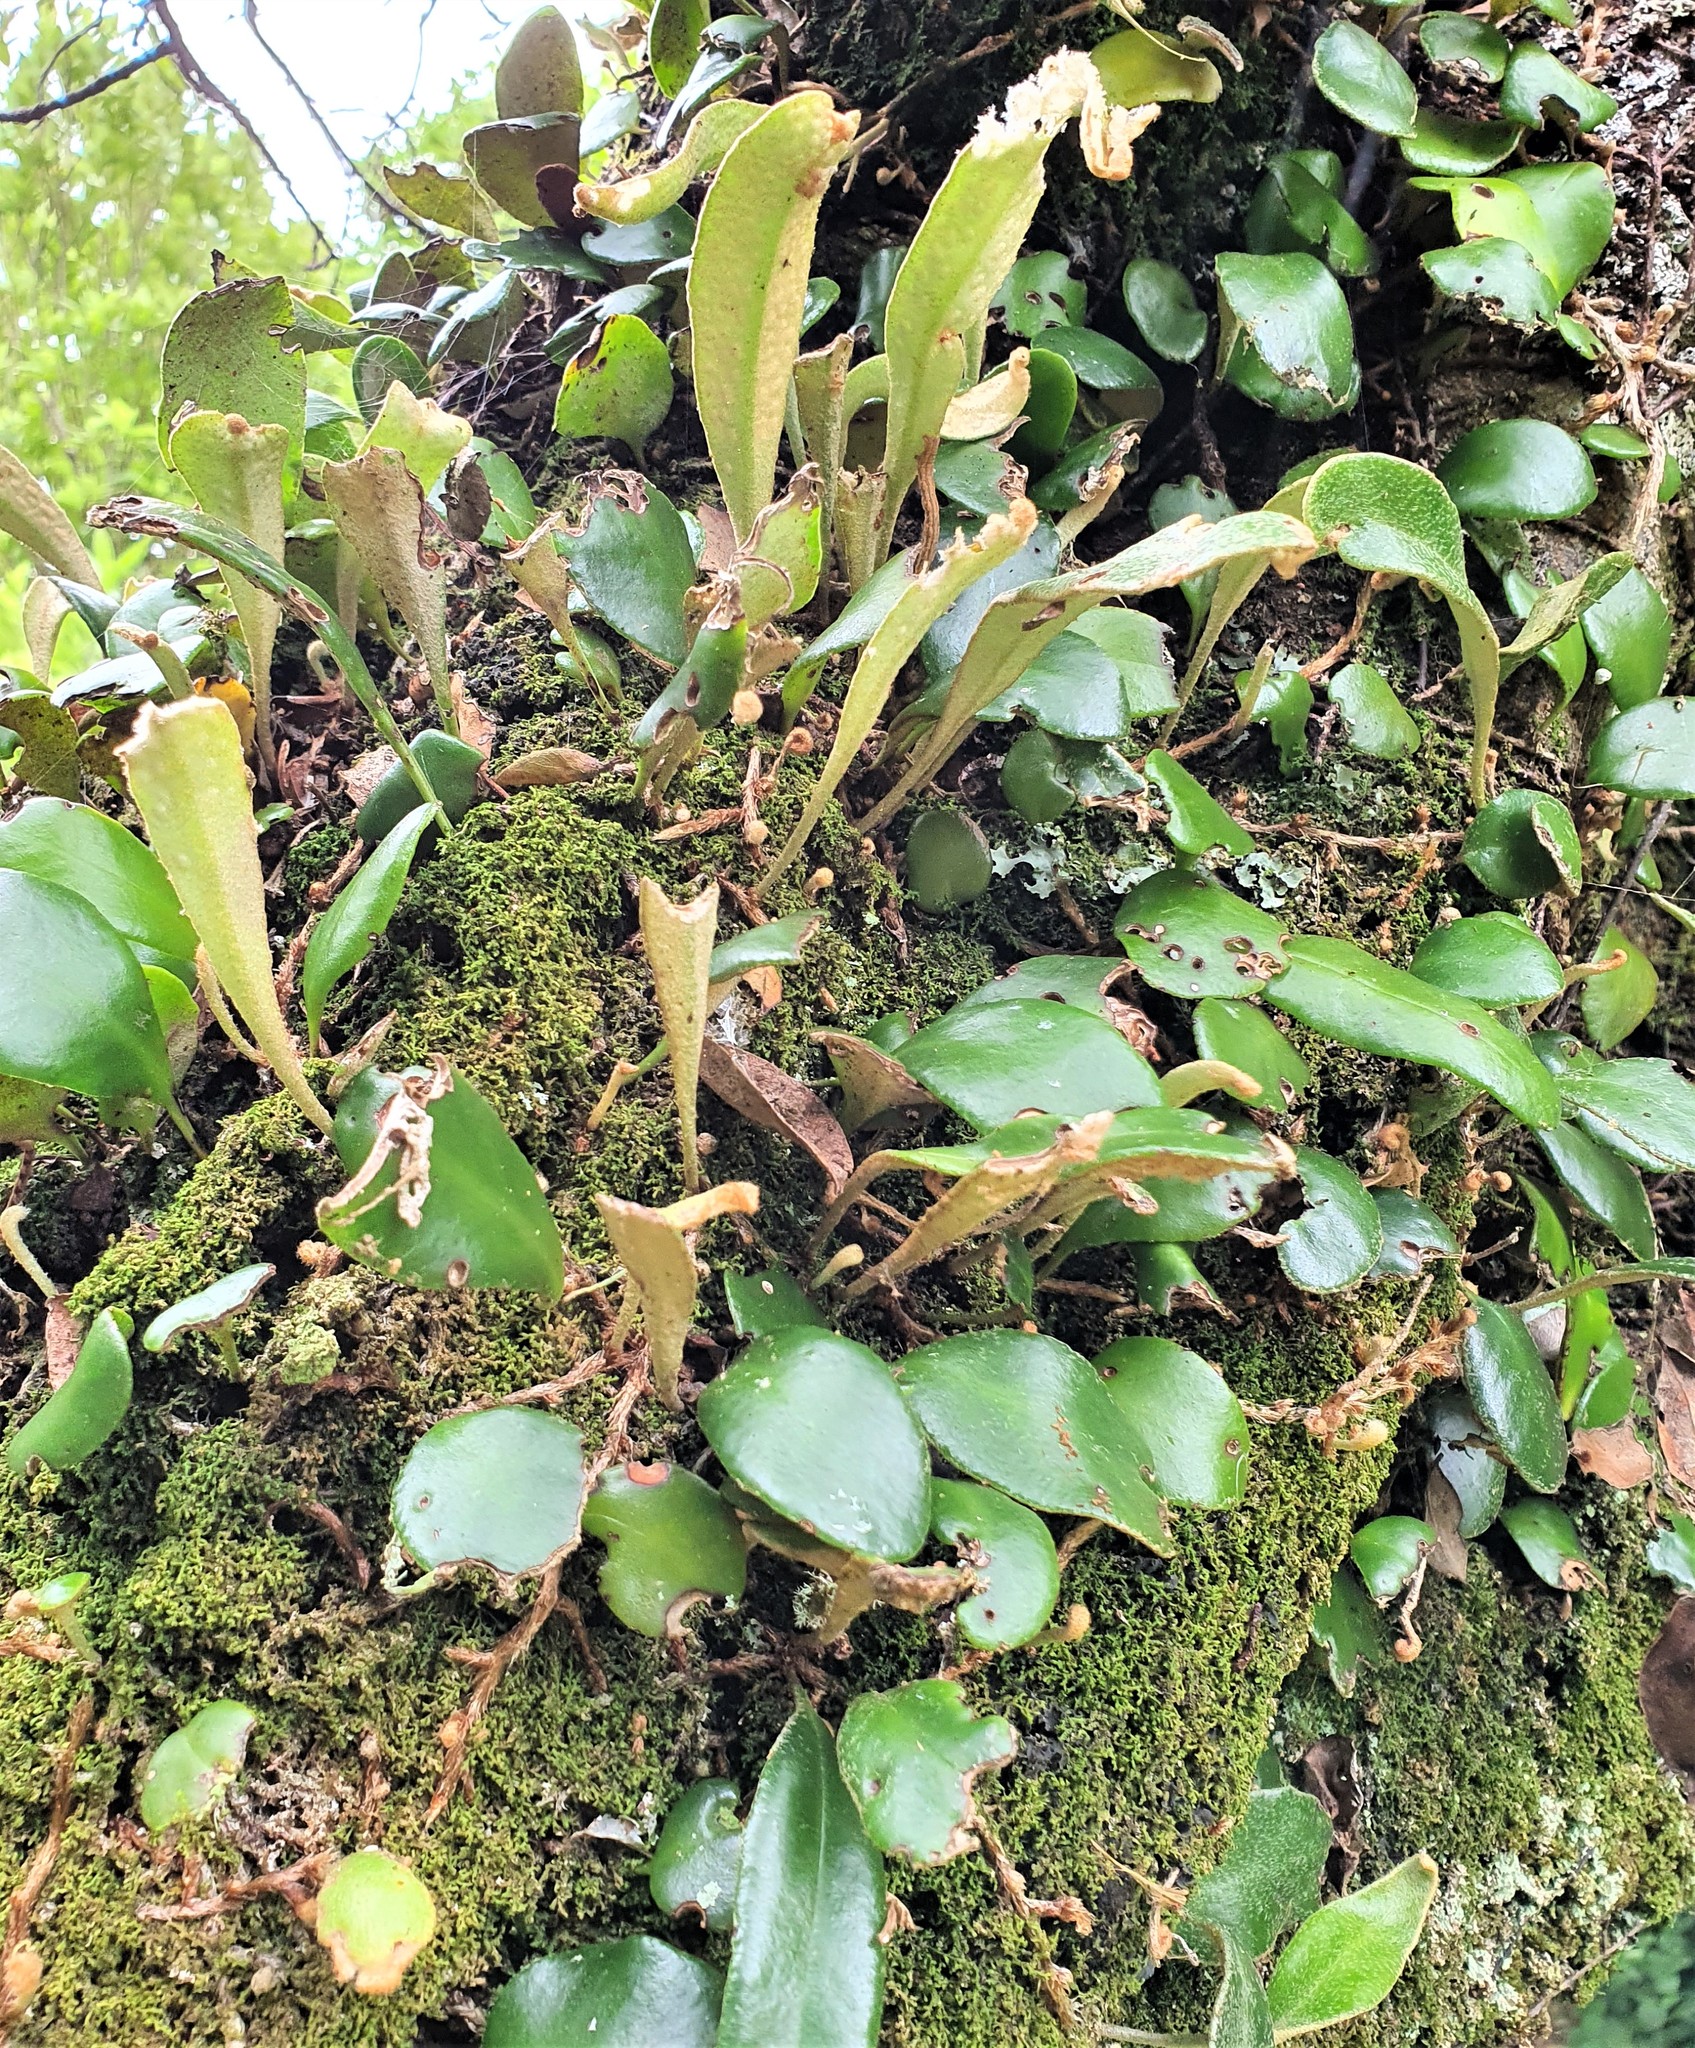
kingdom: Plantae
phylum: Tracheophyta
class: Polypodiopsida
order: Polypodiales
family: Polypodiaceae
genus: Pyrrosia
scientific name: Pyrrosia eleagnifolia
